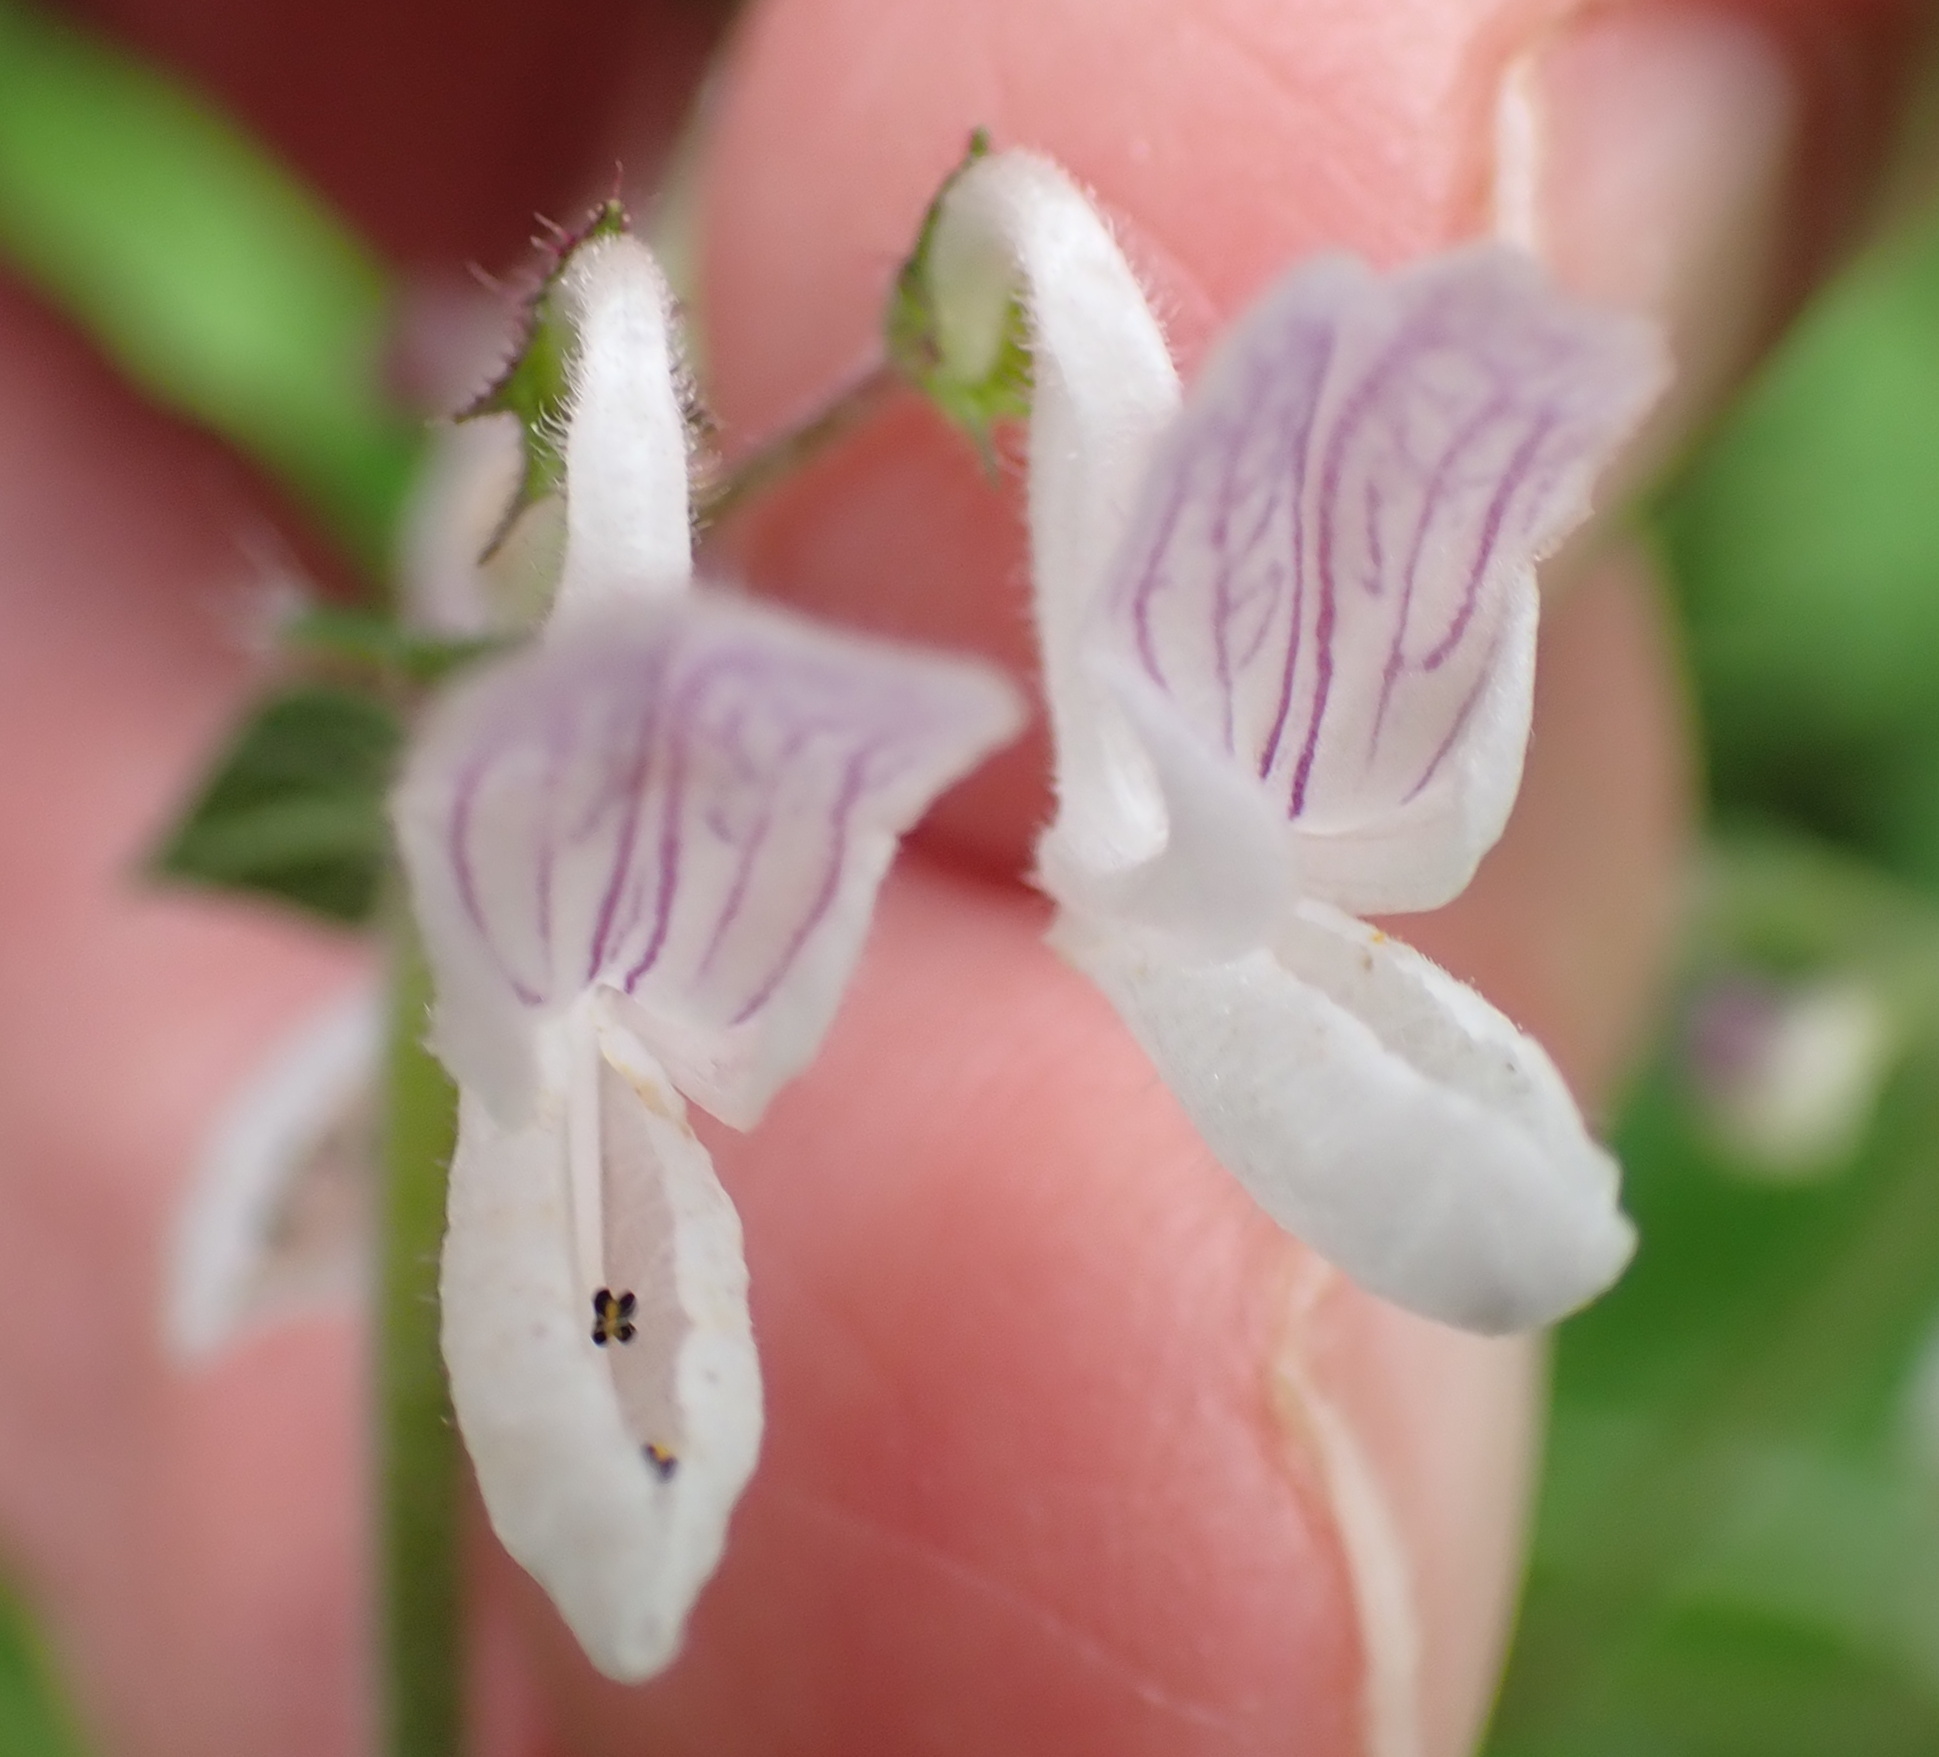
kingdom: Plantae
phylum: Tracheophyta
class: Magnoliopsida
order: Lamiales
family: Lamiaceae
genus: Equilabium
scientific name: Equilabium laxiflorum
